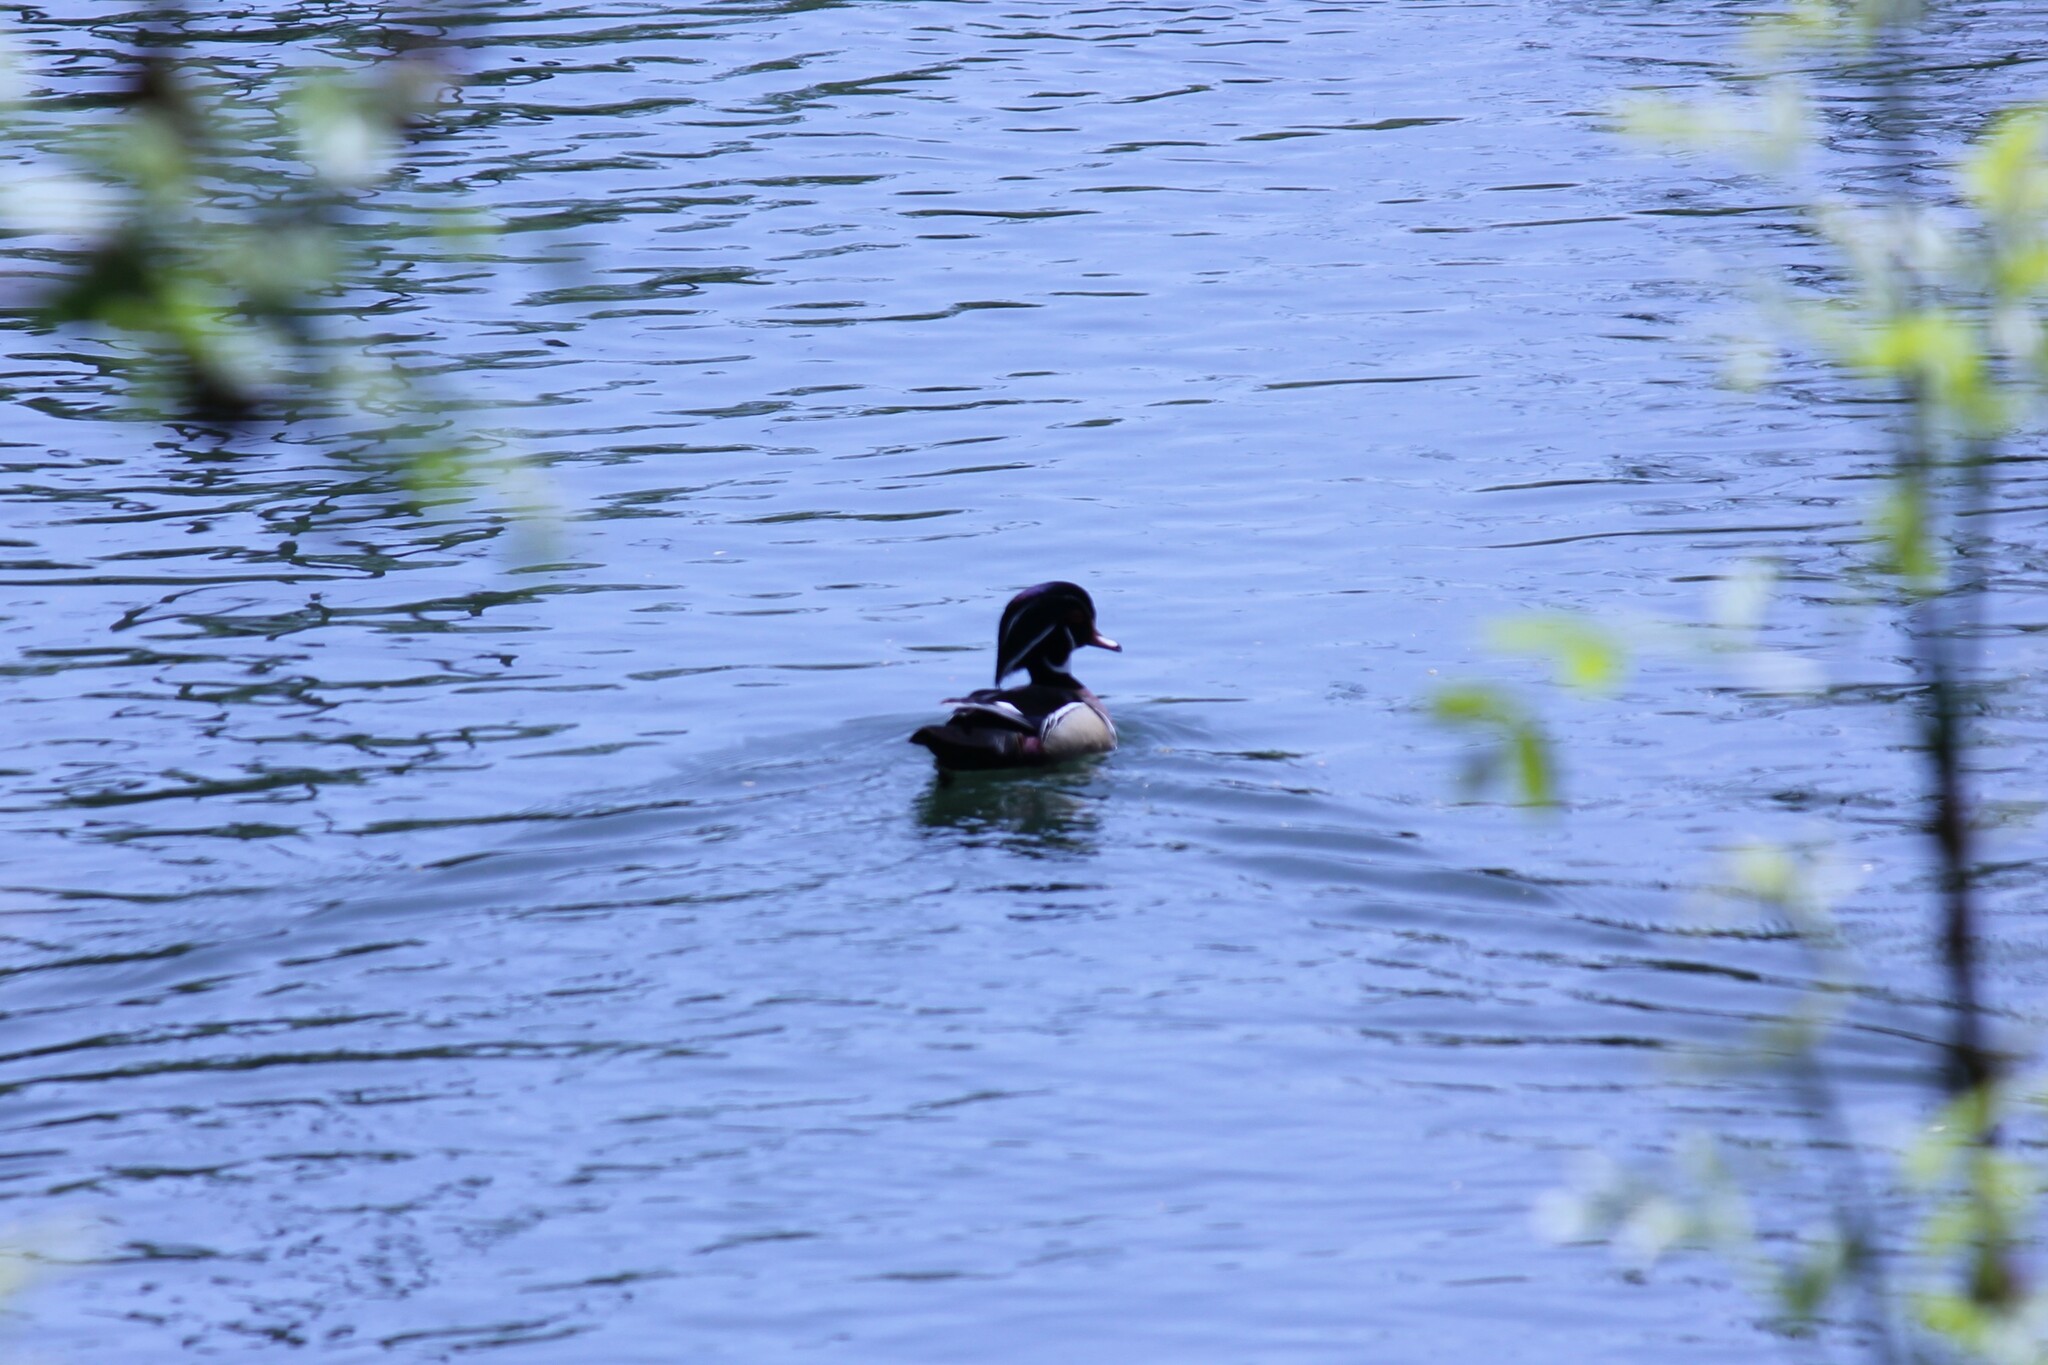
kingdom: Animalia
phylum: Chordata
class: Aves
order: Anseriformes
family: Anatidae
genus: Aix
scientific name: Aix sponsa
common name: Wood duck
